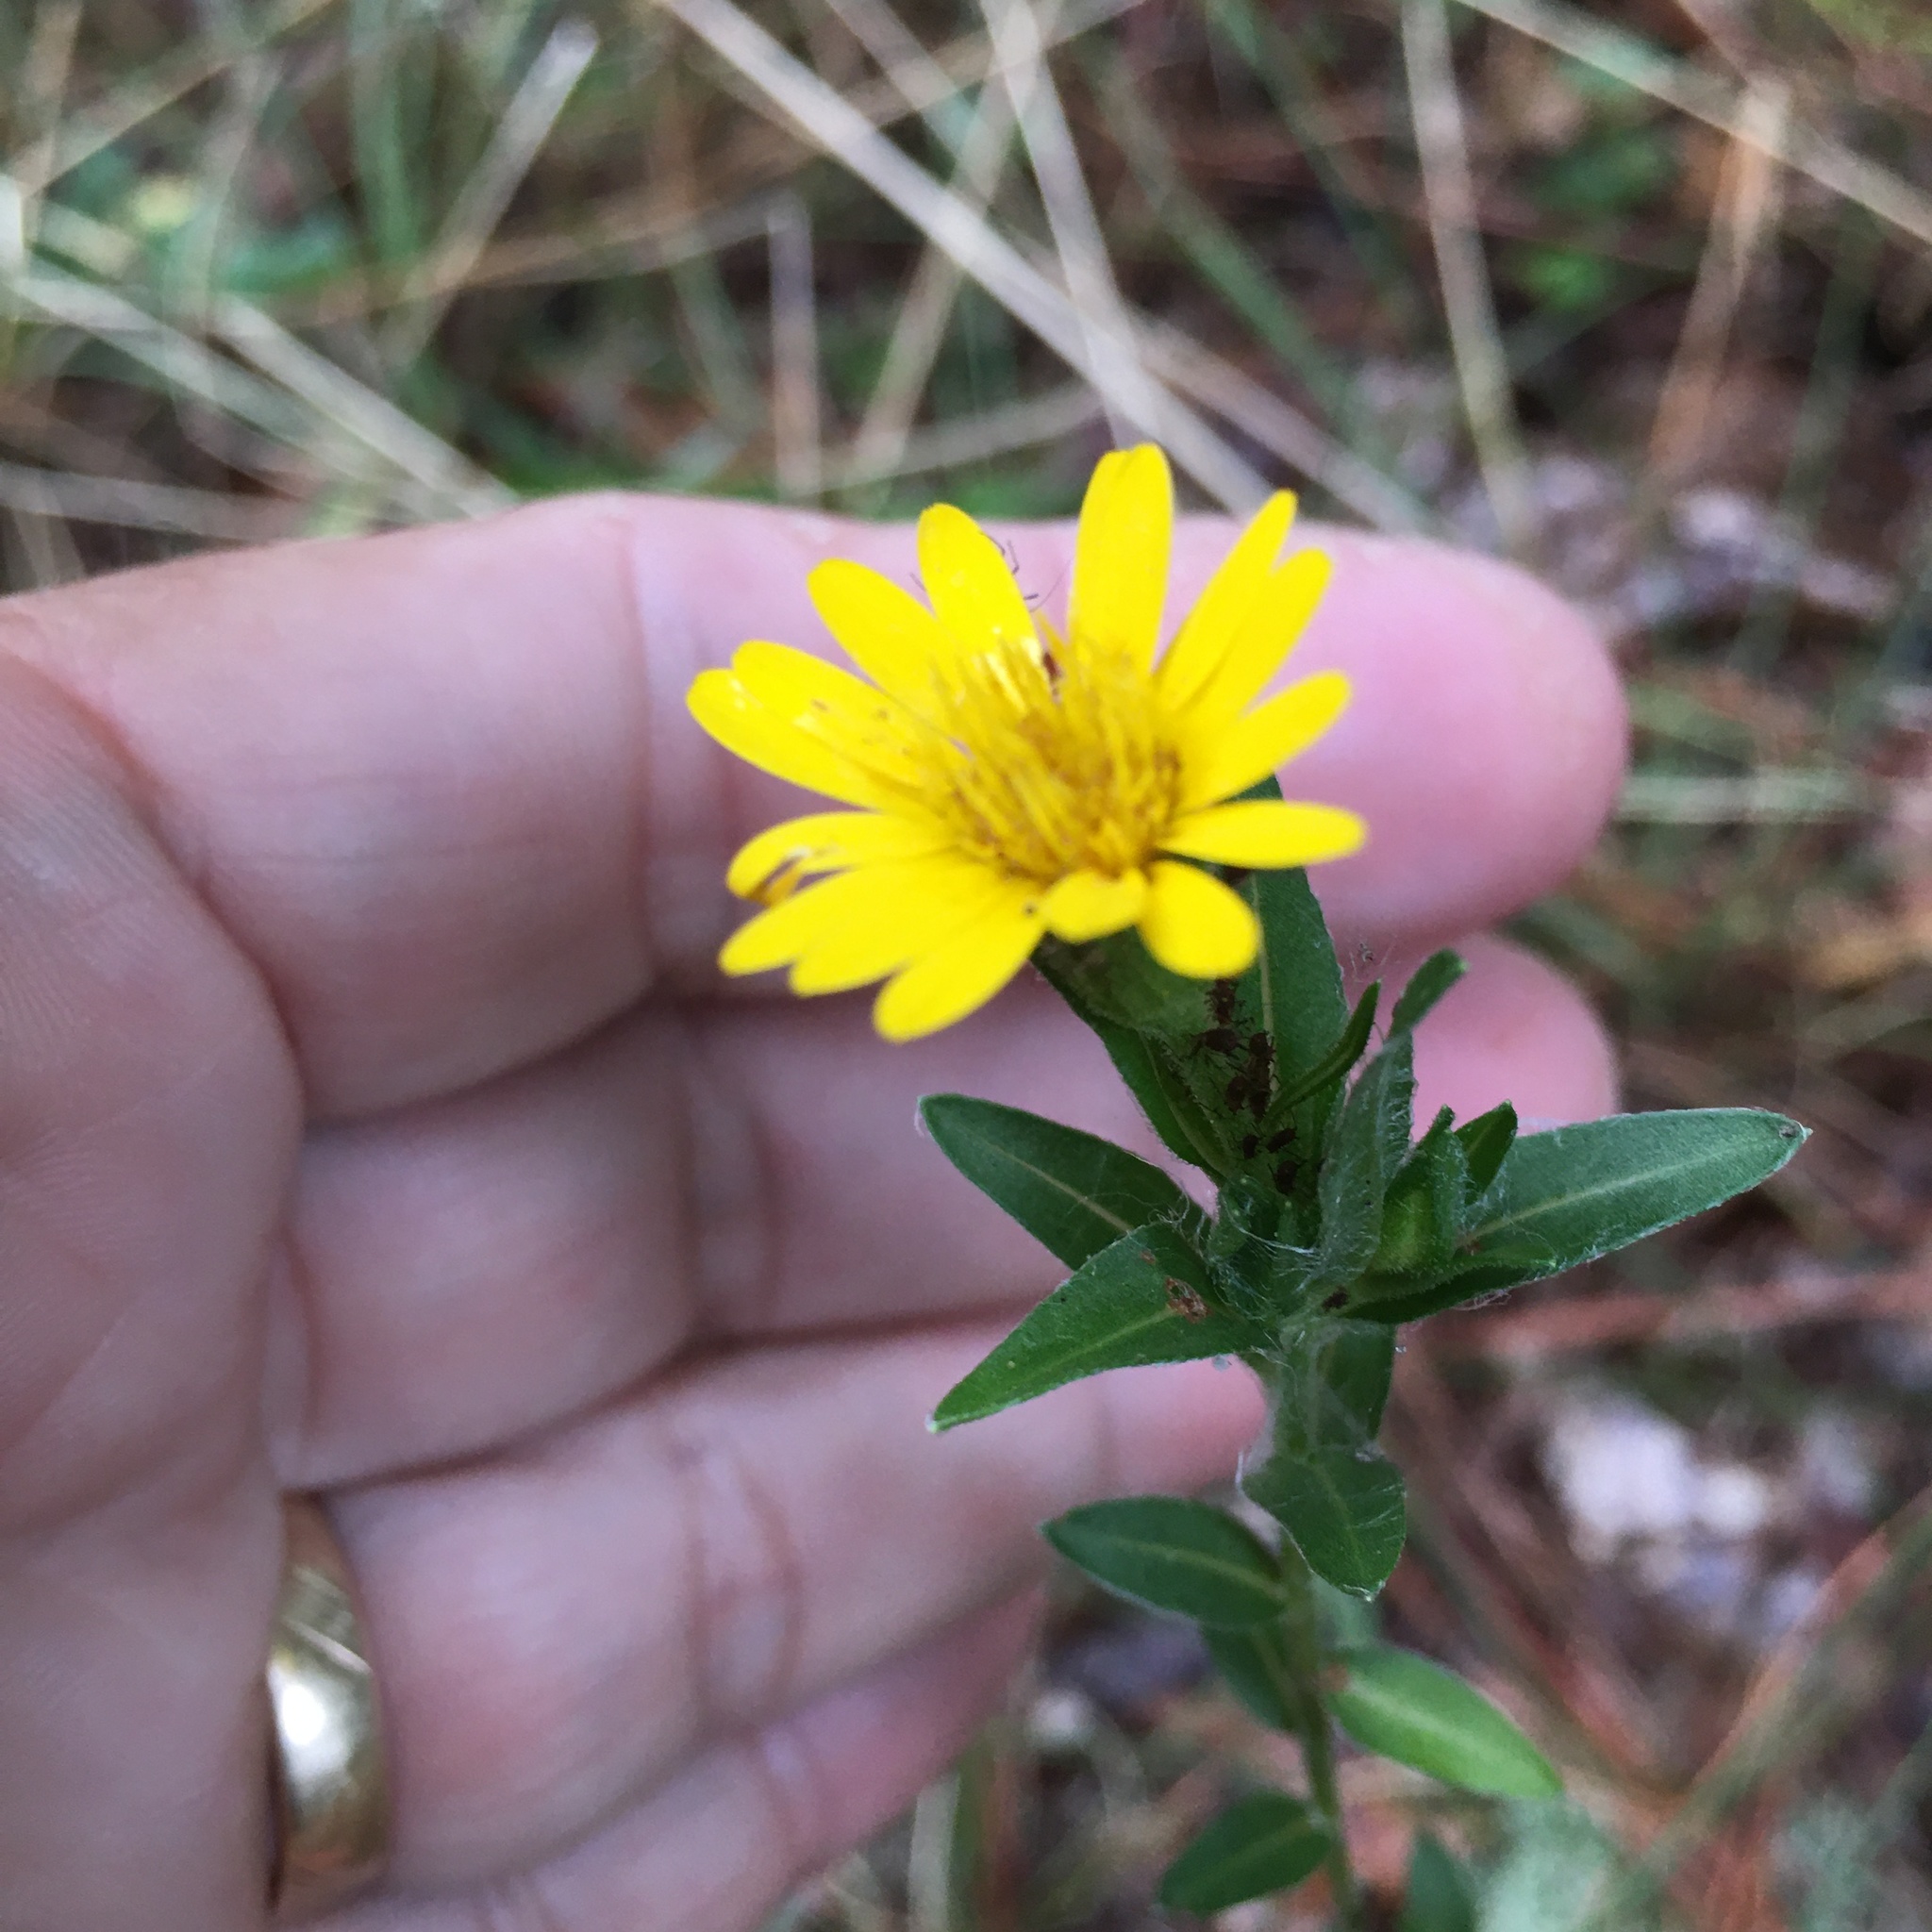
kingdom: Plantae
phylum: Tracheophyta
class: Magnoliopsida
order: Asterales
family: Asteraceae
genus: Chrysopsis
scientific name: Chrysopsis mariana
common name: Maryland golden-aster
